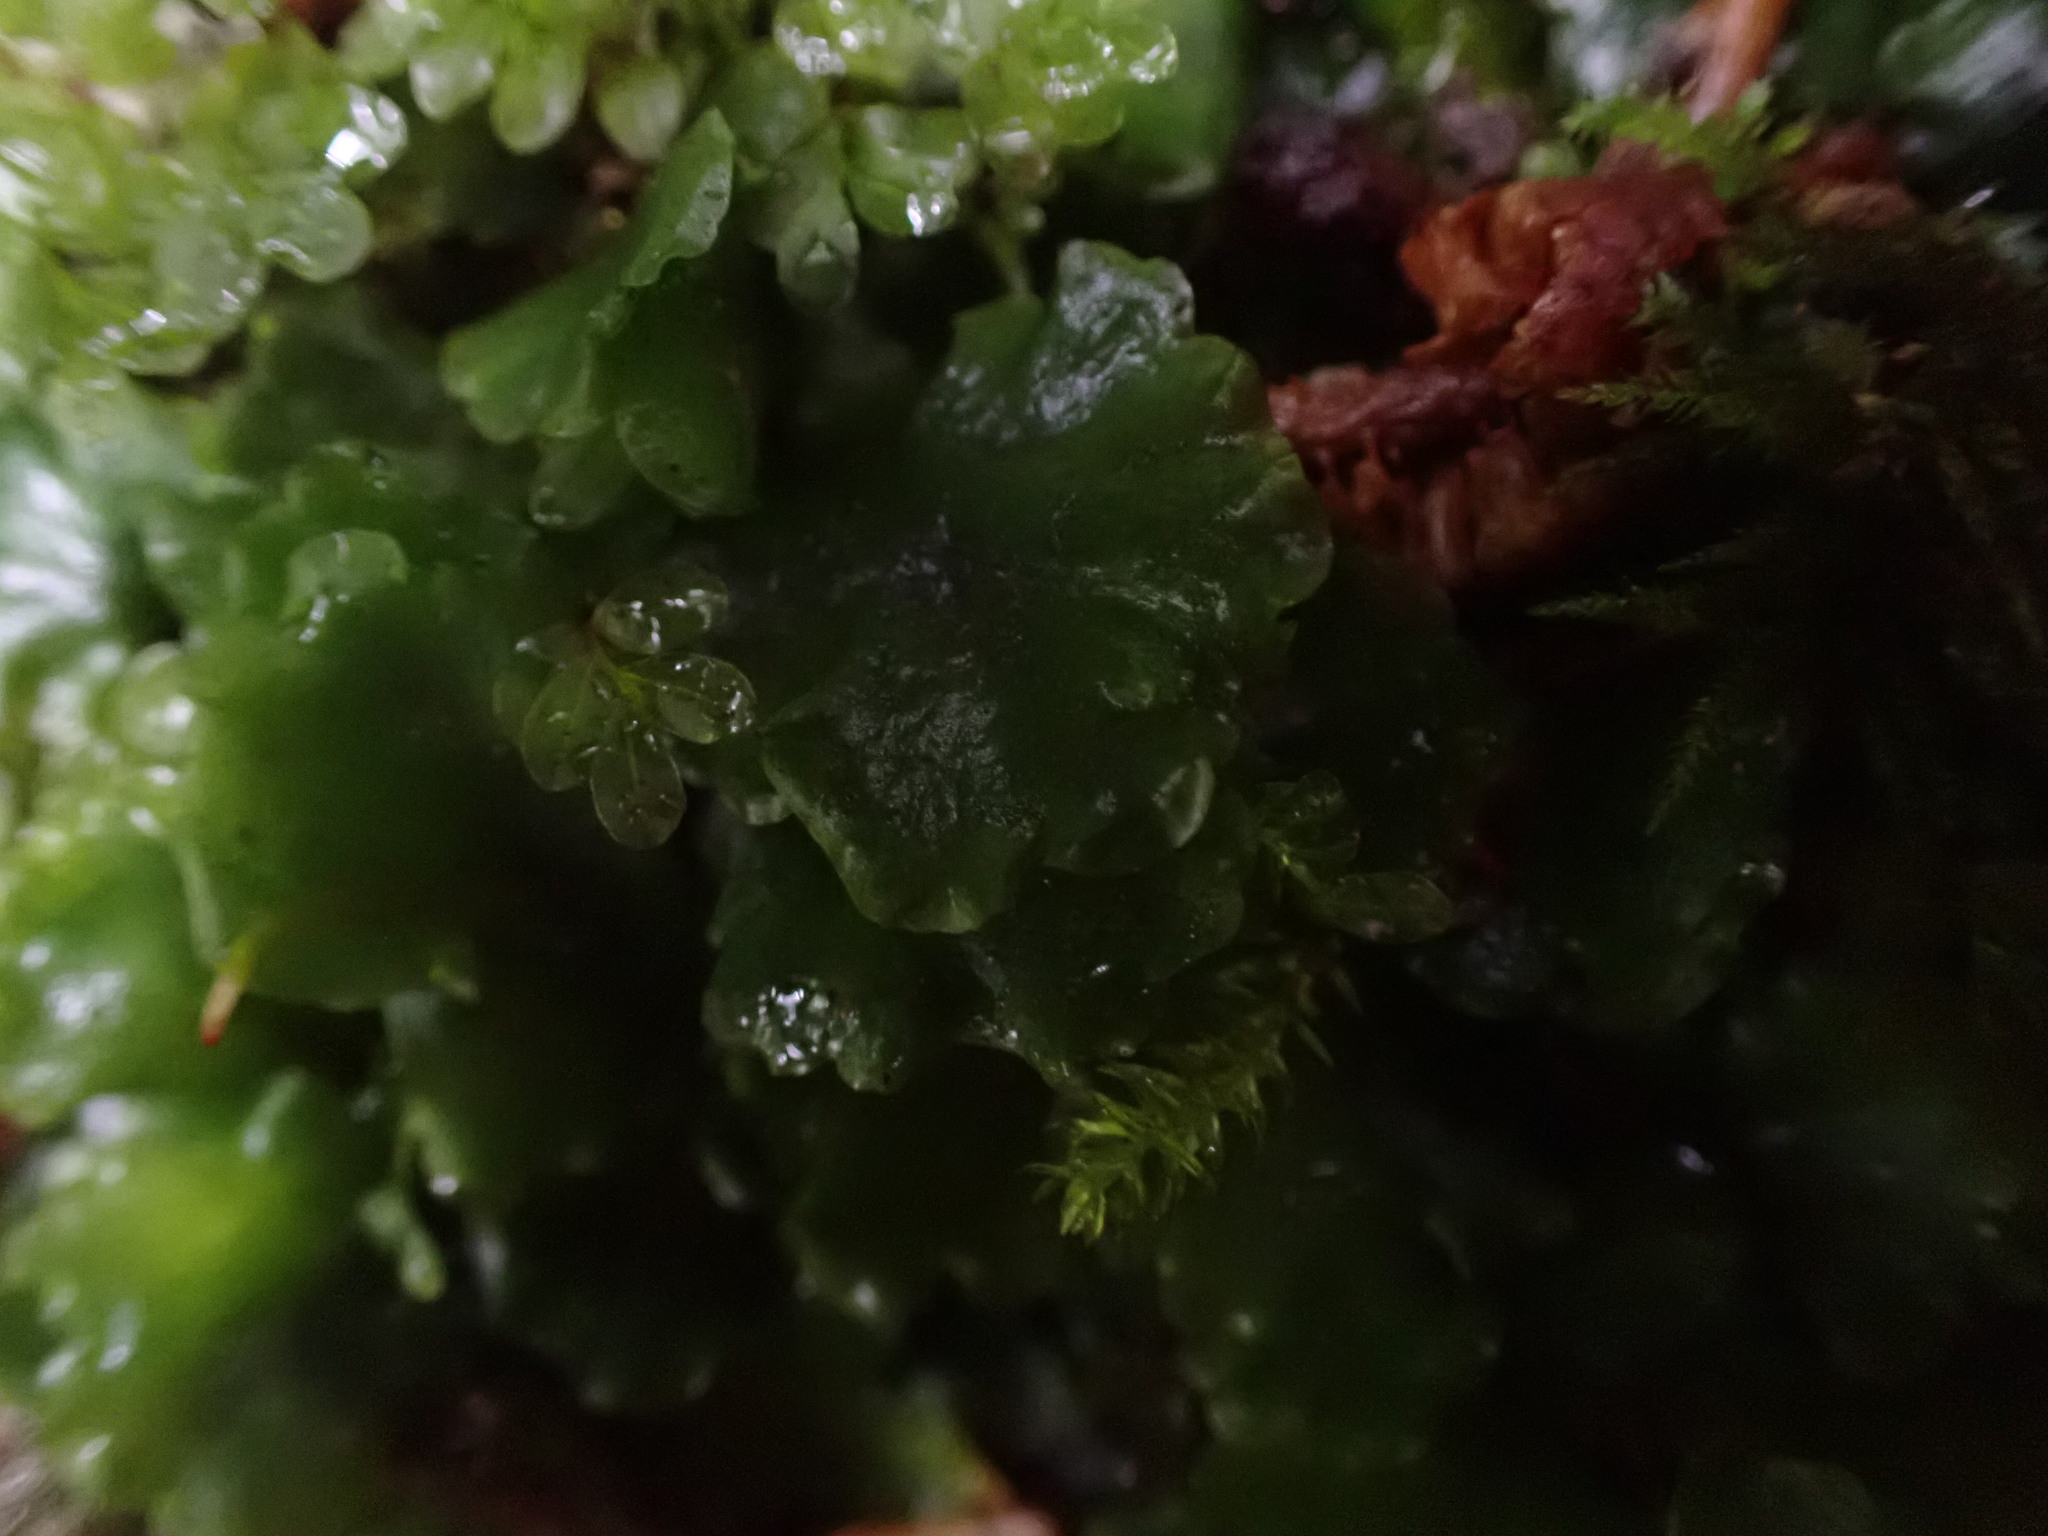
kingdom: Plantae
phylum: Marchantiophyta
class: Jungermanniopsida
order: Pelliales
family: Pelliaceae
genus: Pellia
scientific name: Pellia neesiana
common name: Nees  pellia
